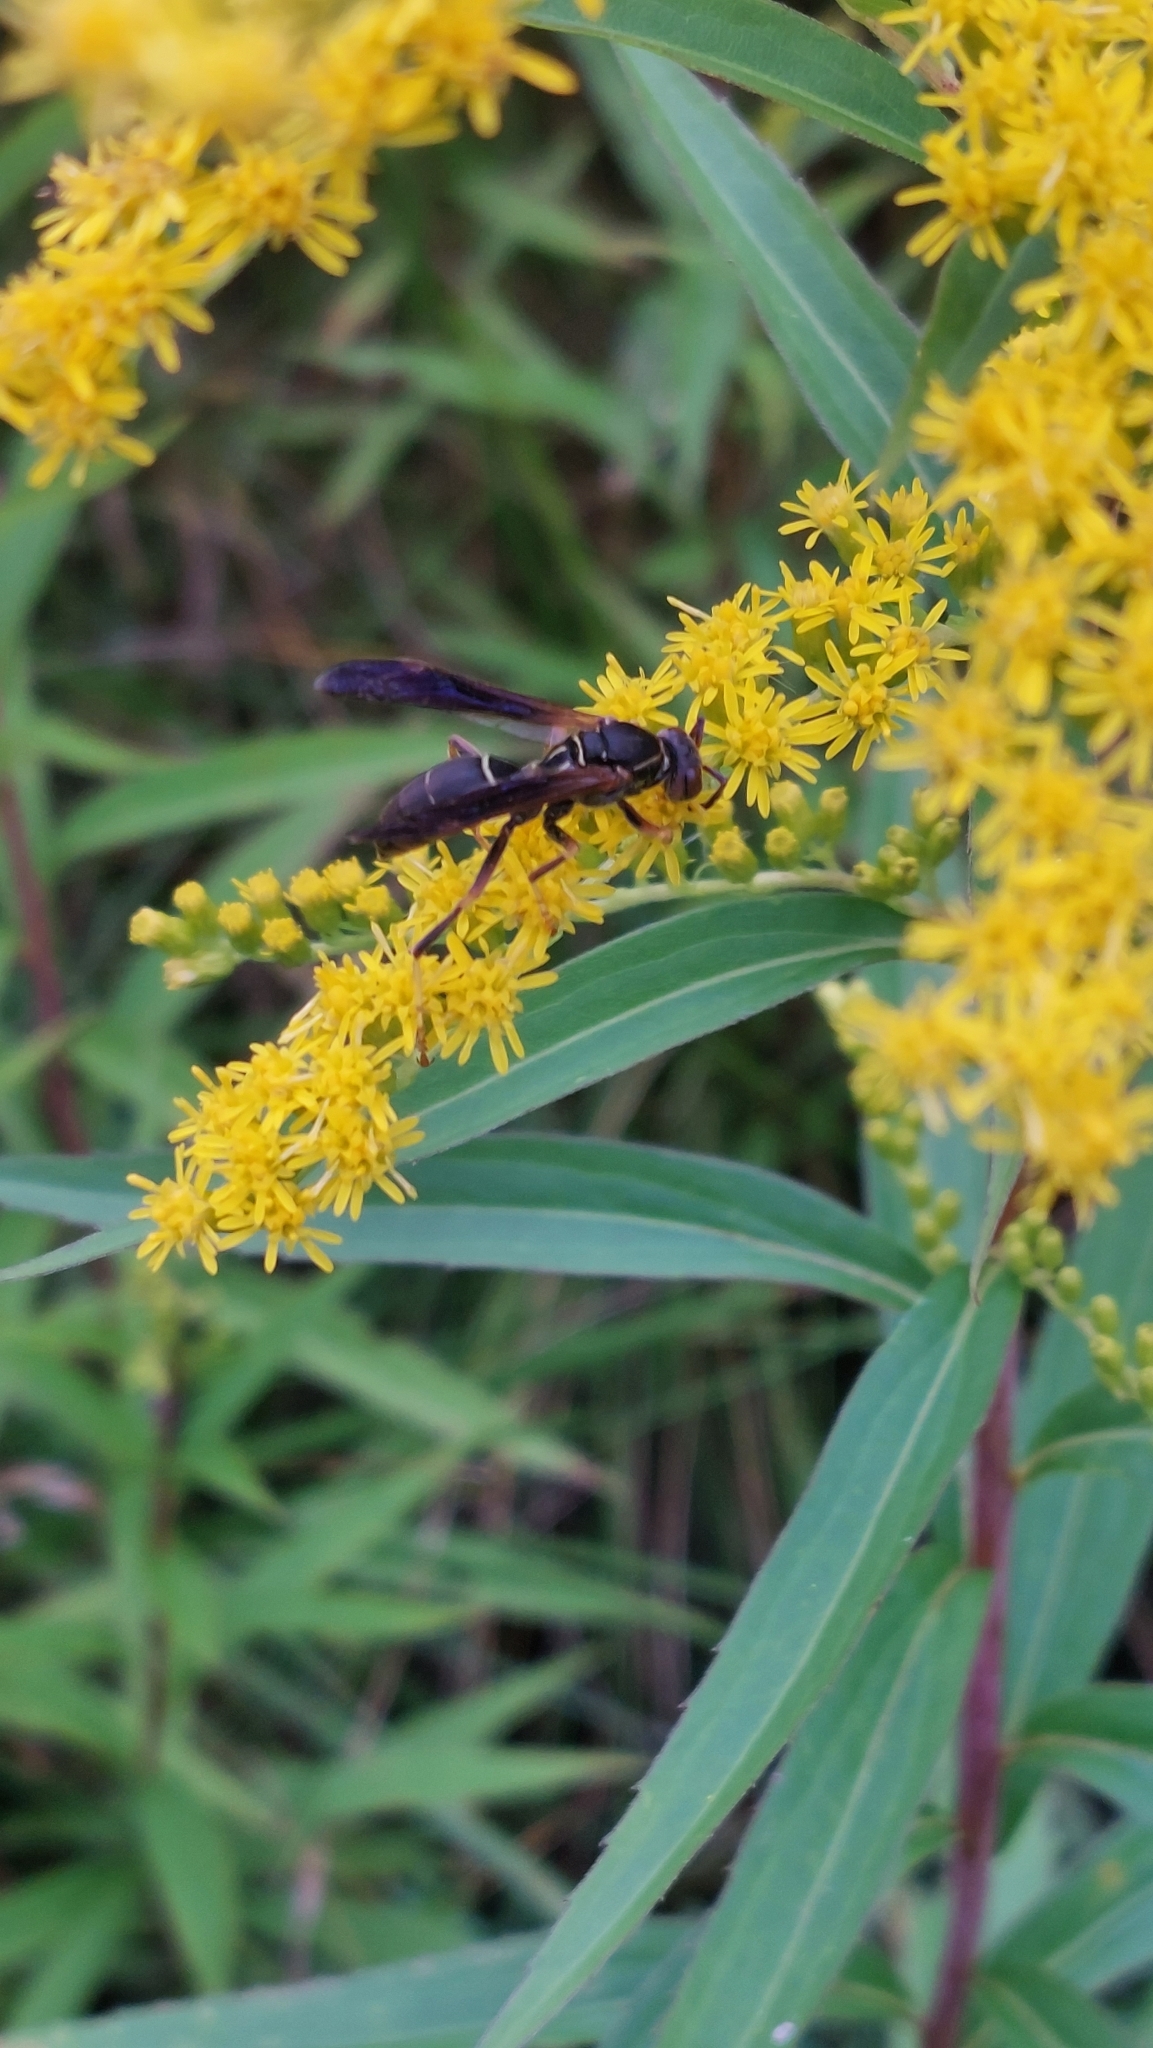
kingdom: Animalia
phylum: Arthropoda
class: Insecta
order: Hymenoptera
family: Eumenidae
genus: Polistes
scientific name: Polistes fuscatus
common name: Dark paper wasp
